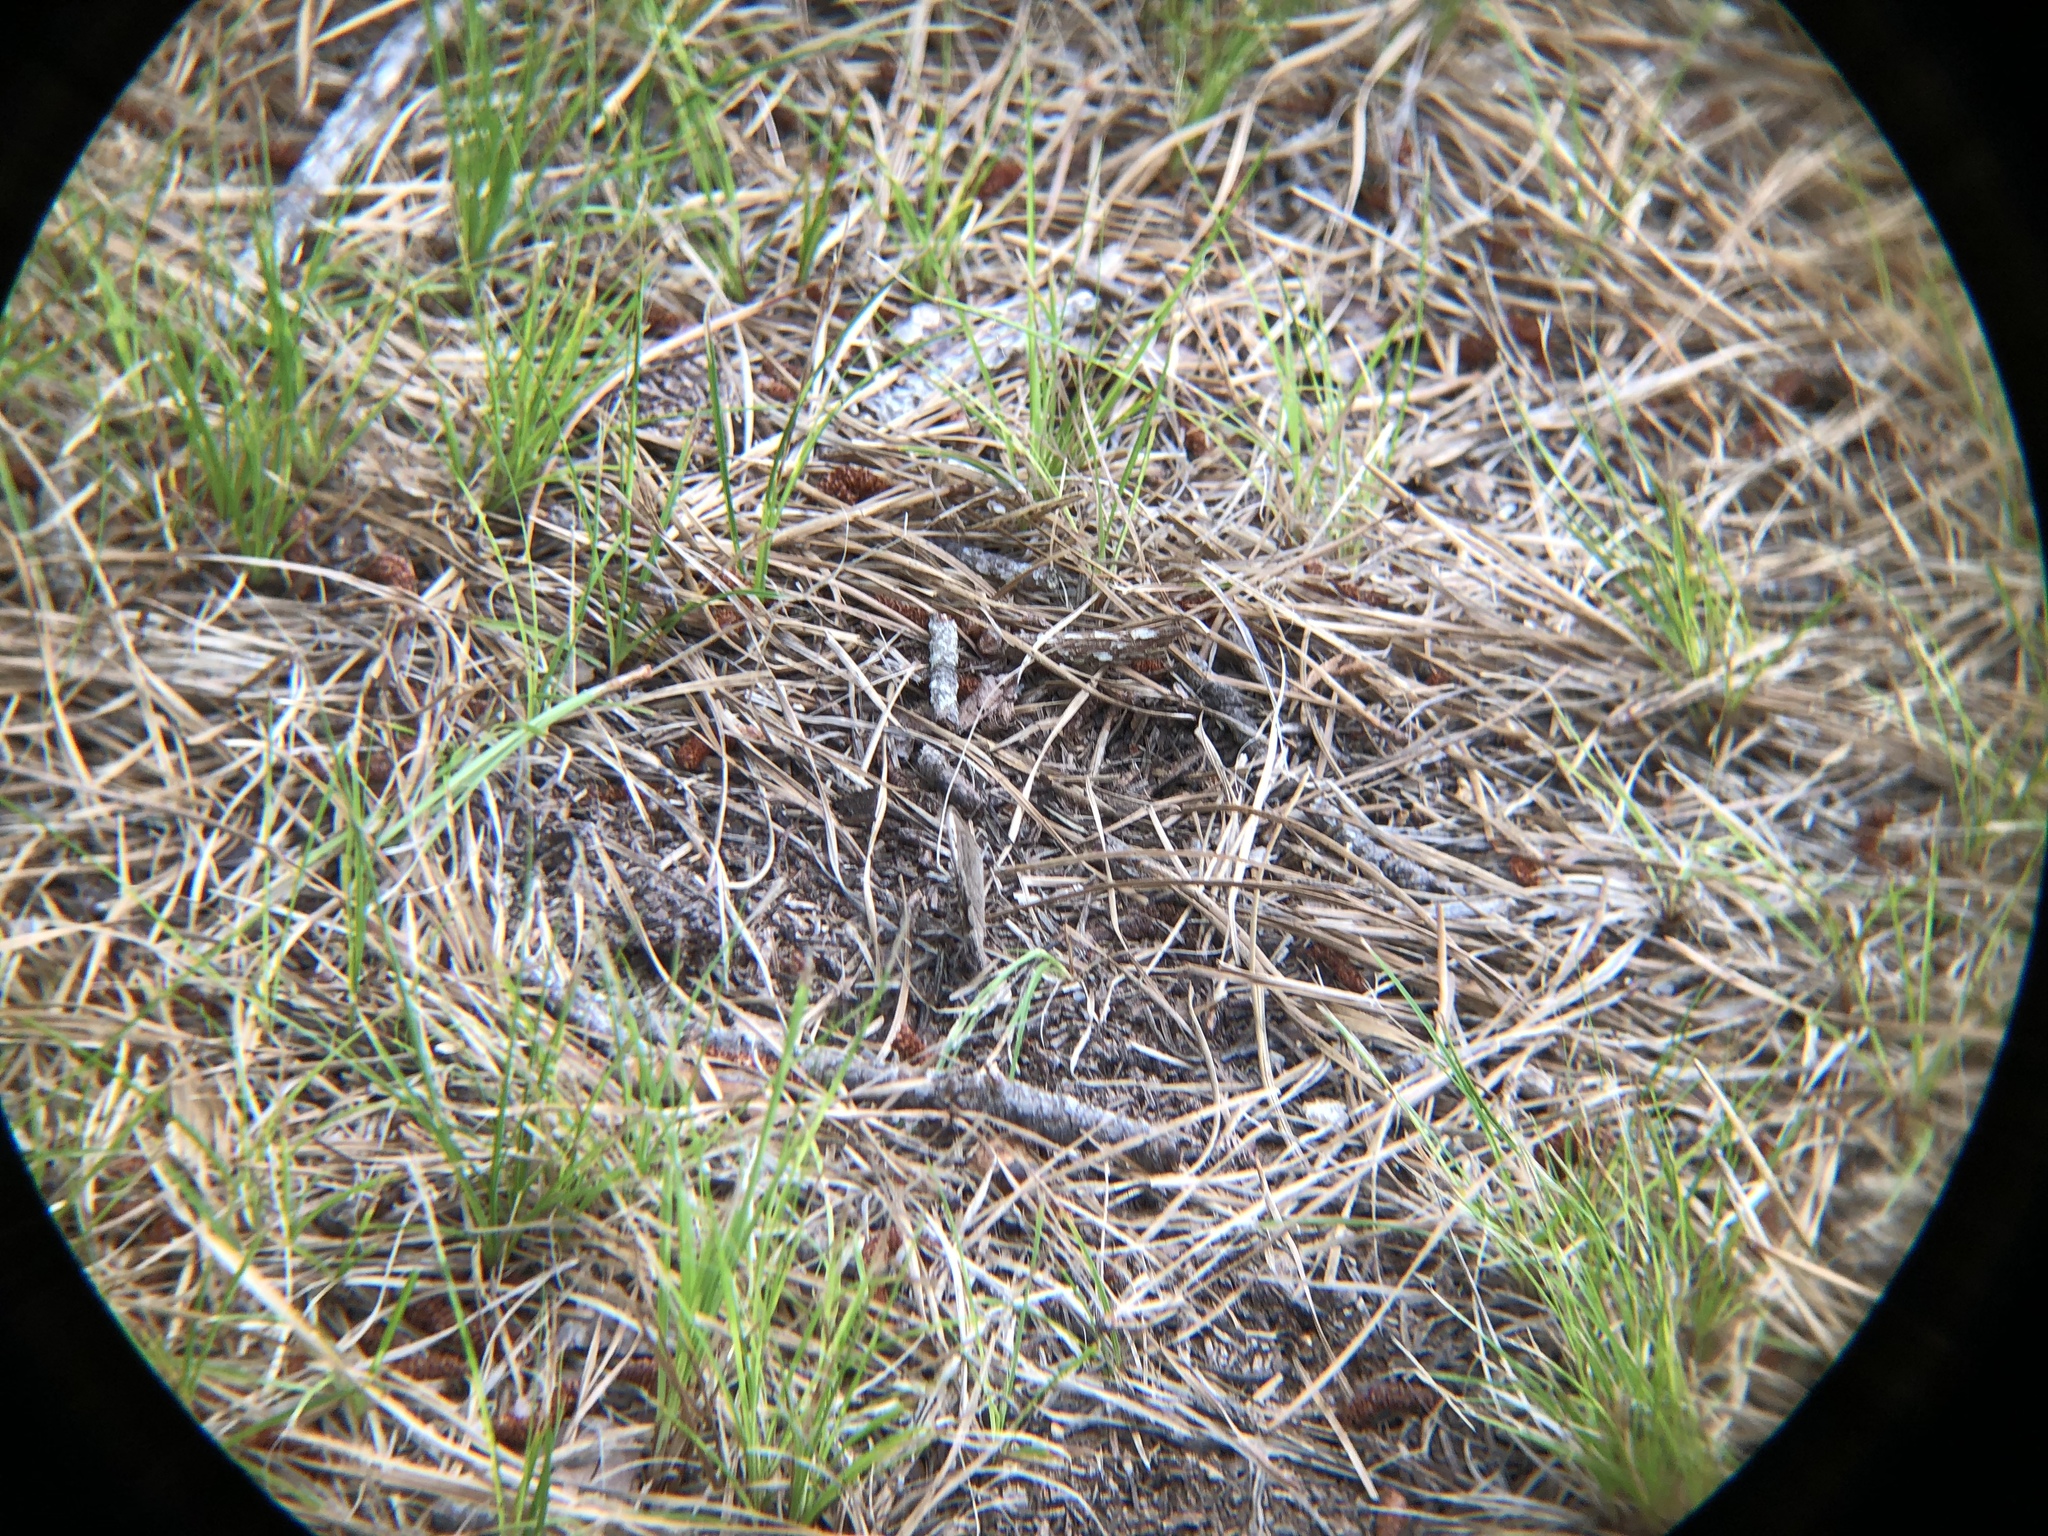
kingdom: Animalia
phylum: Arthropoda
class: Insecta
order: Lepidoptera
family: Nymphalidae
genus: Cercyonis
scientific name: Cercyonis pegala
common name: Common wood-nymph
